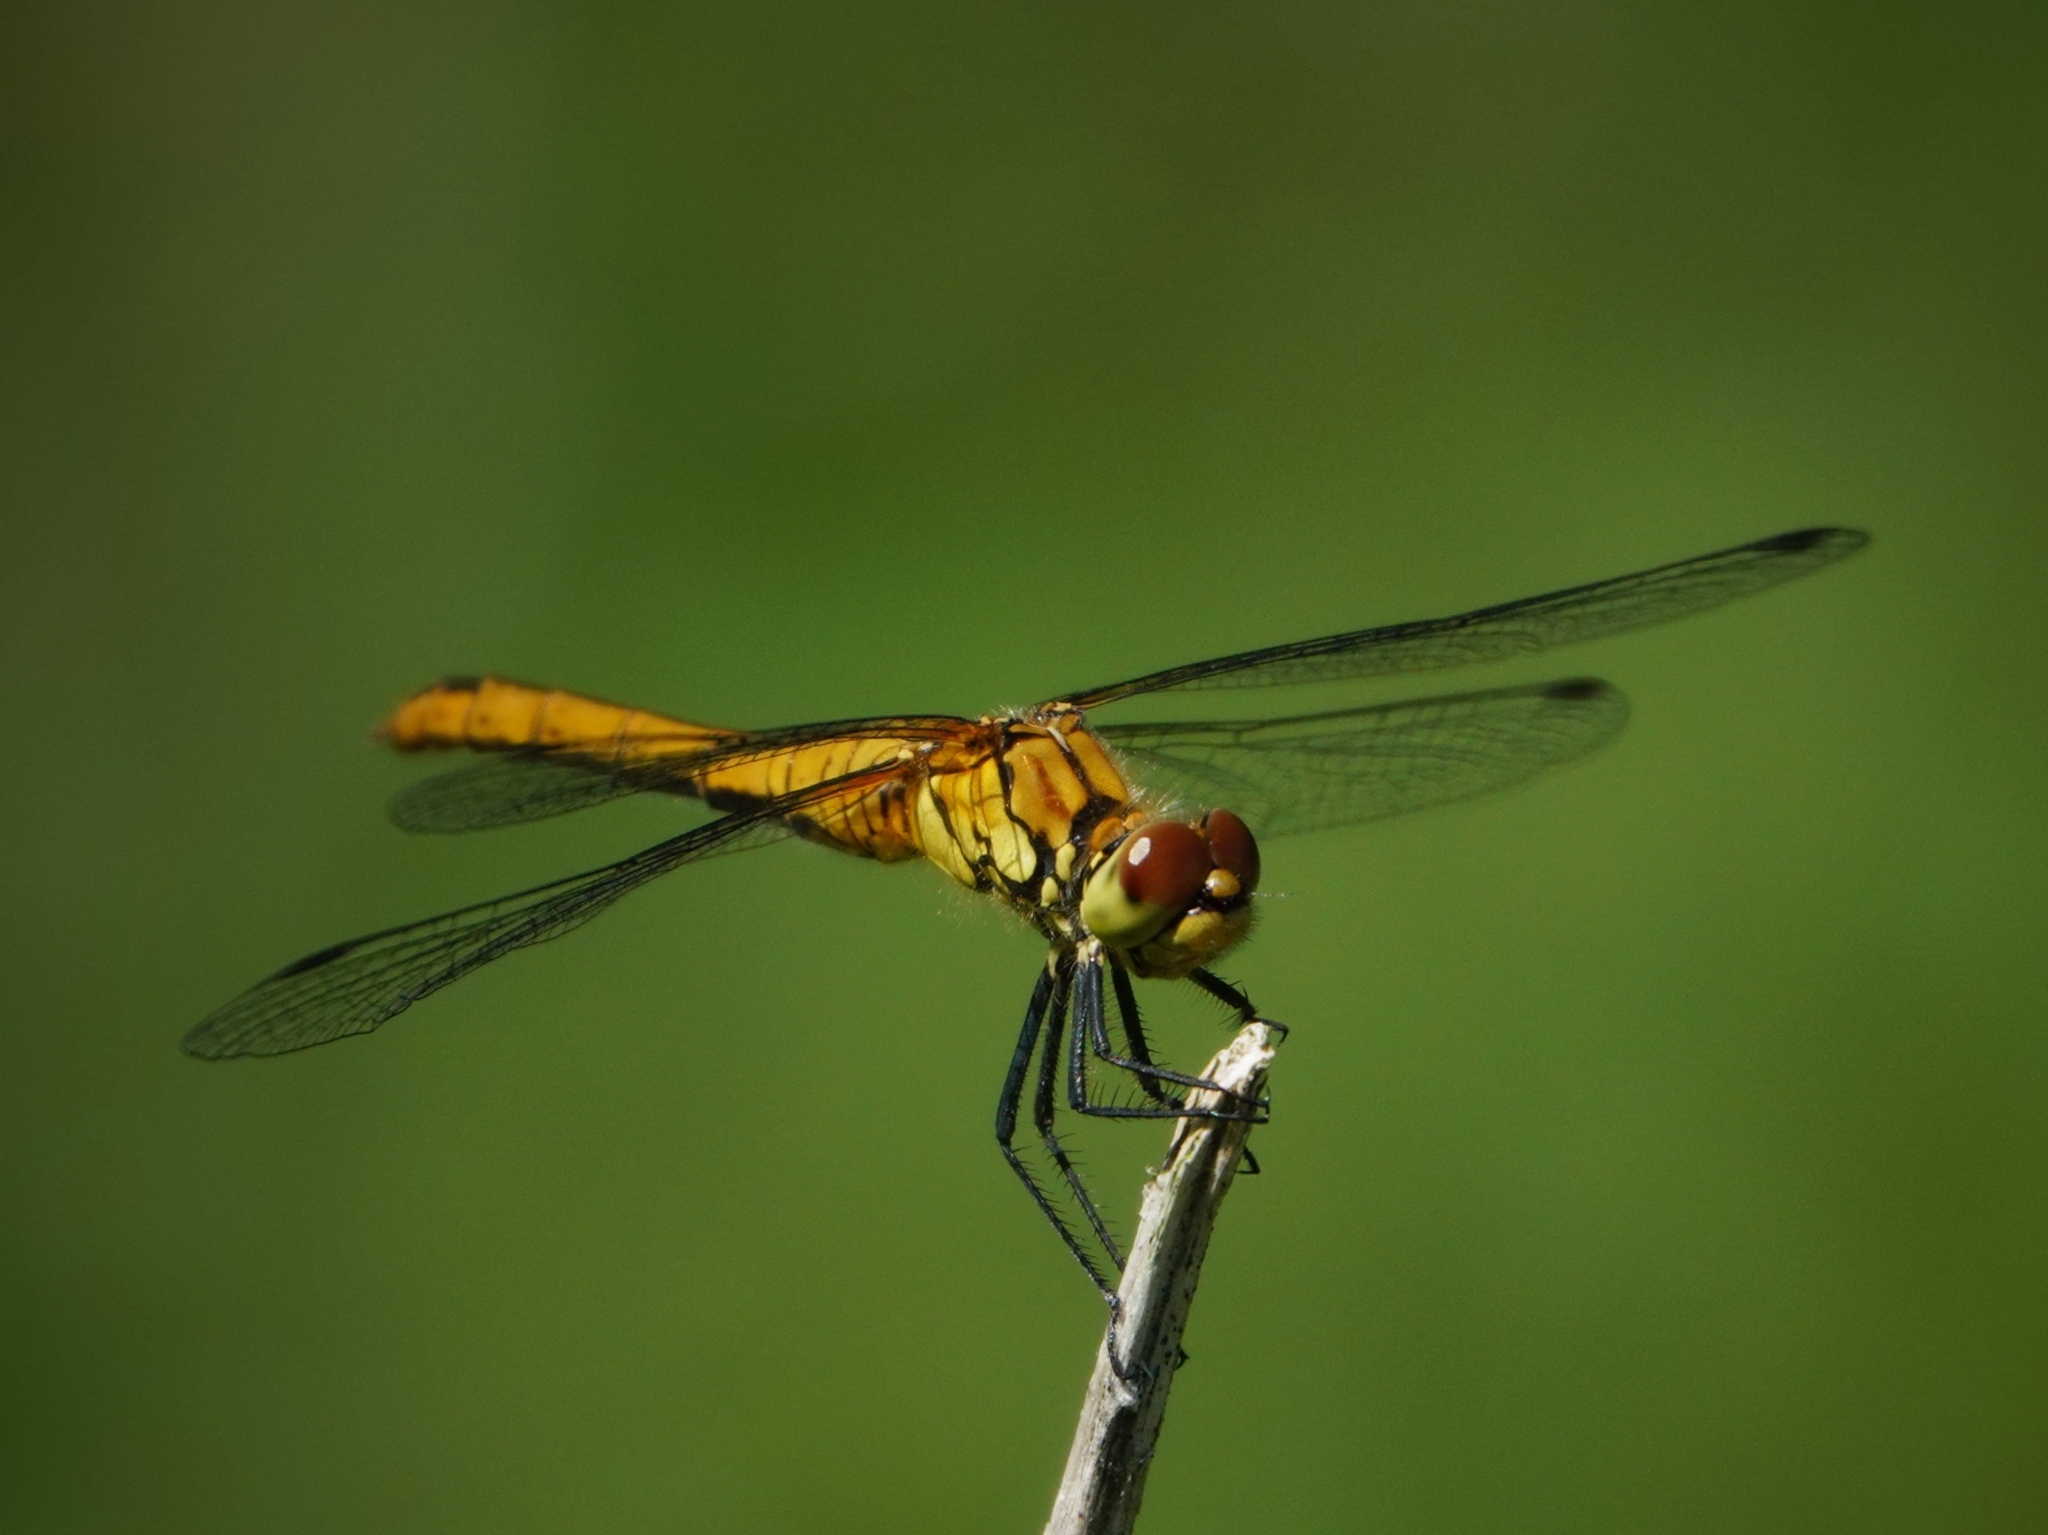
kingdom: Animalia
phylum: Arthropoda
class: Insecta
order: Odonata
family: Libellulidae
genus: Sympetrum
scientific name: Sympetrum sanguineum
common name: Ruddy darter
